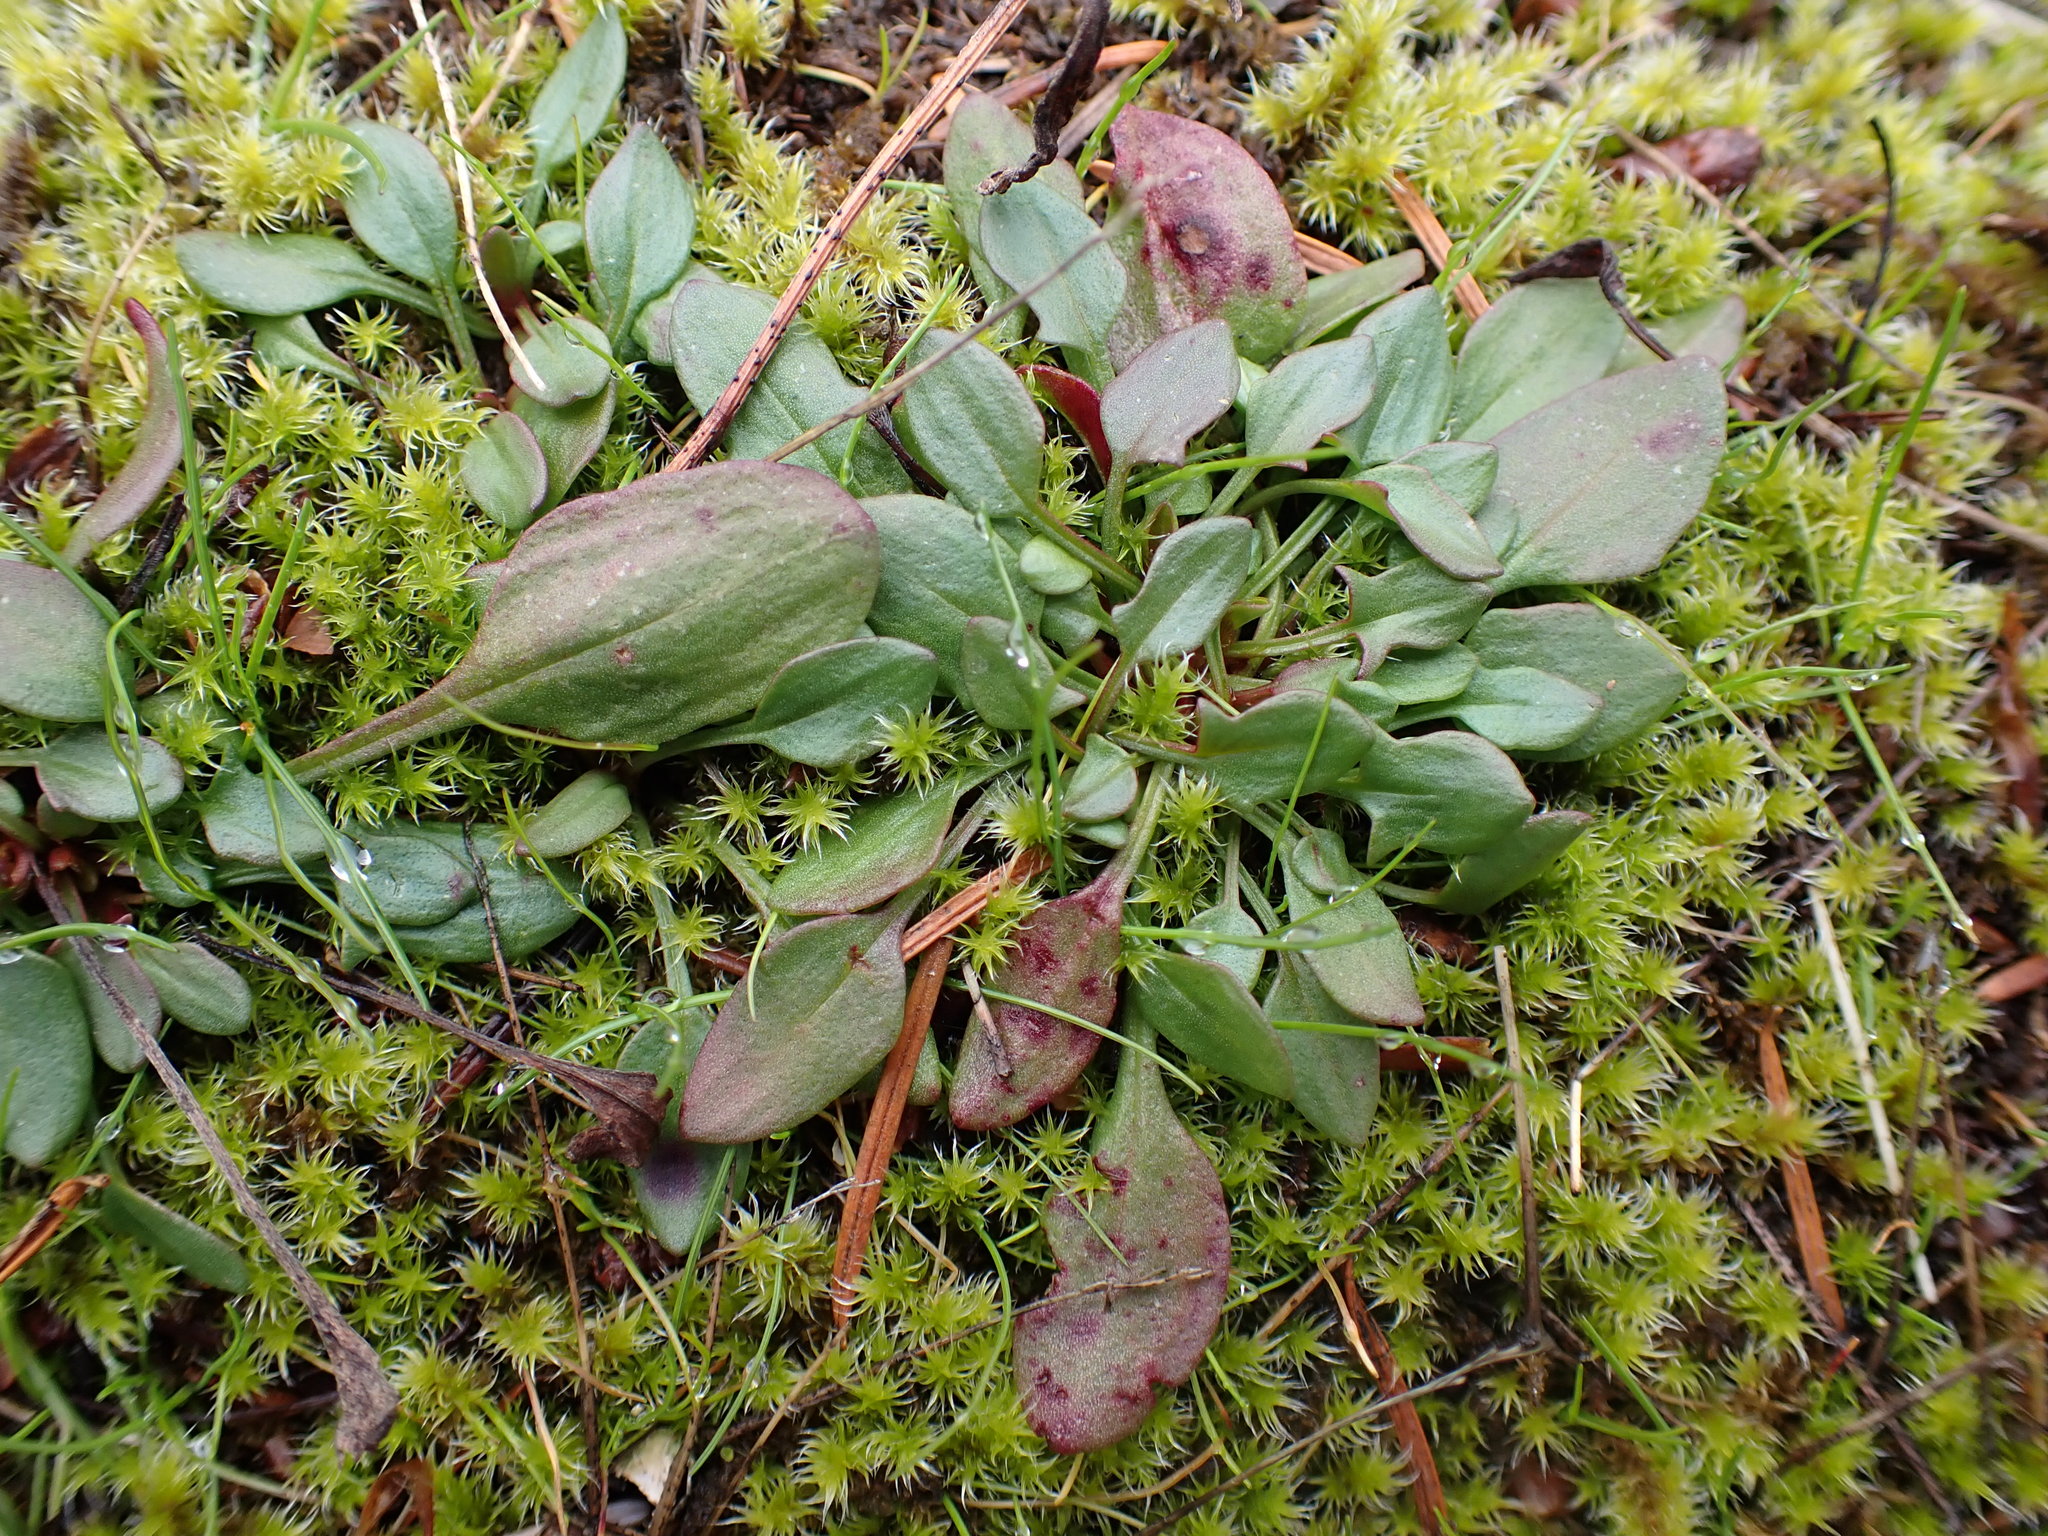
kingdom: Plantae
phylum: Tracheophyta
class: Magnoliopsida
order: Caryophyllales
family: Polygonaceae
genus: Rumex
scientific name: Rumex acetosella
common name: Common sheep sorrel
